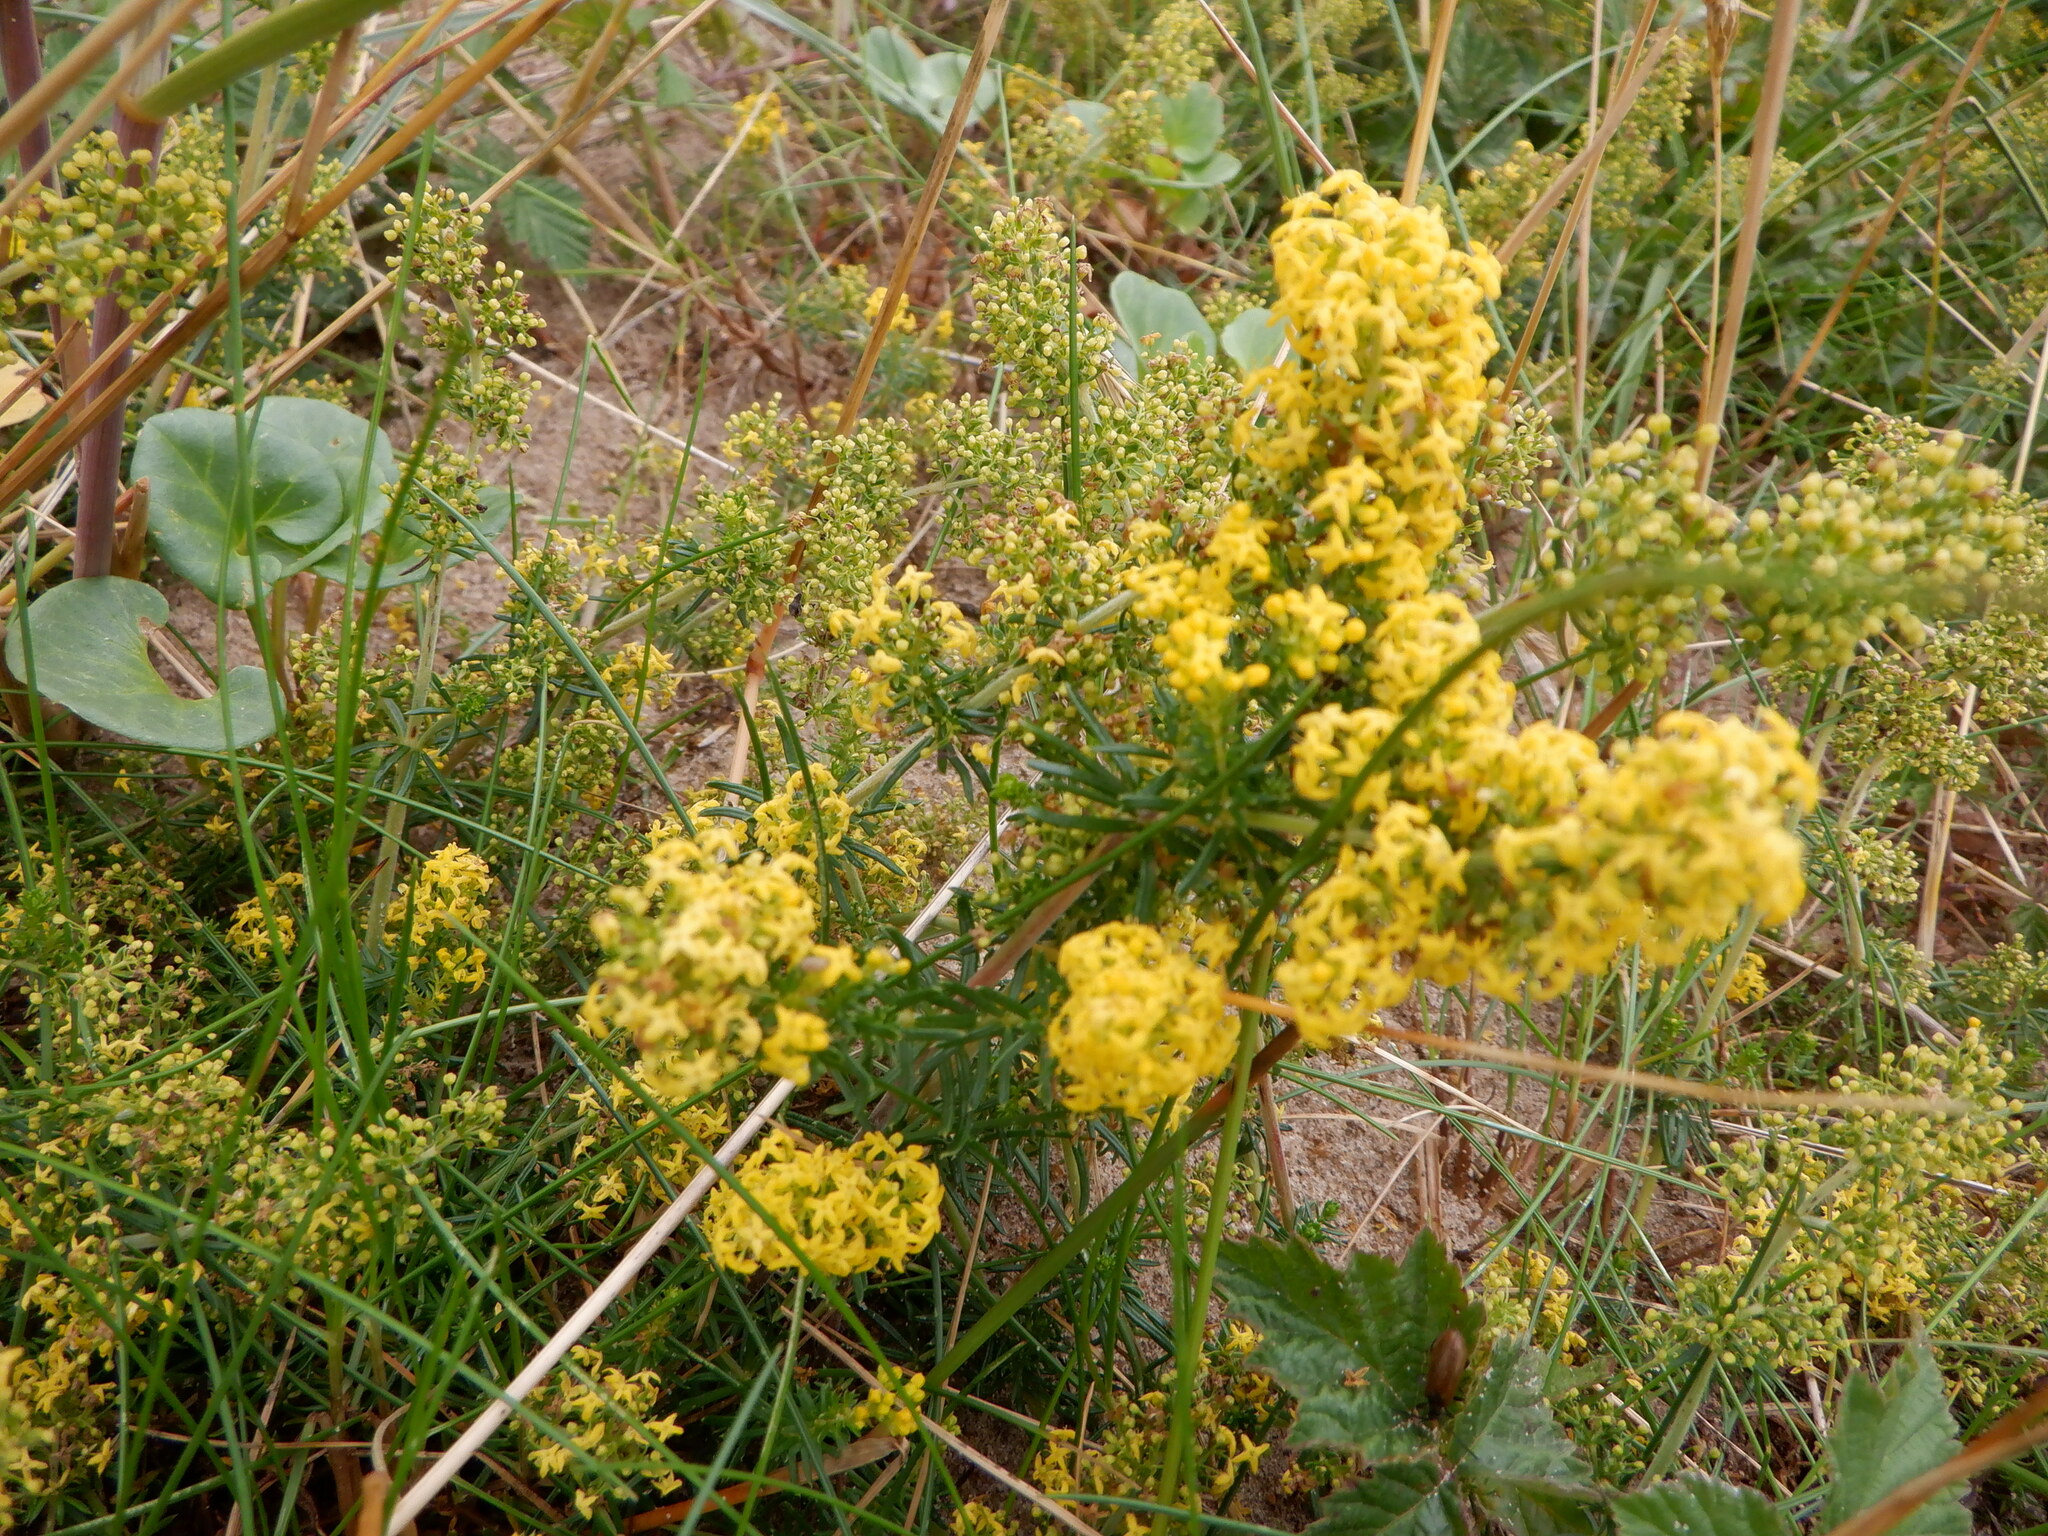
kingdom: Plantae
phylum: Tracheophyta
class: Magnoliopsida
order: Gentianales
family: Rubiaceae
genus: Galium
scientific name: Galium verum
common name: Lady's bedstraw
